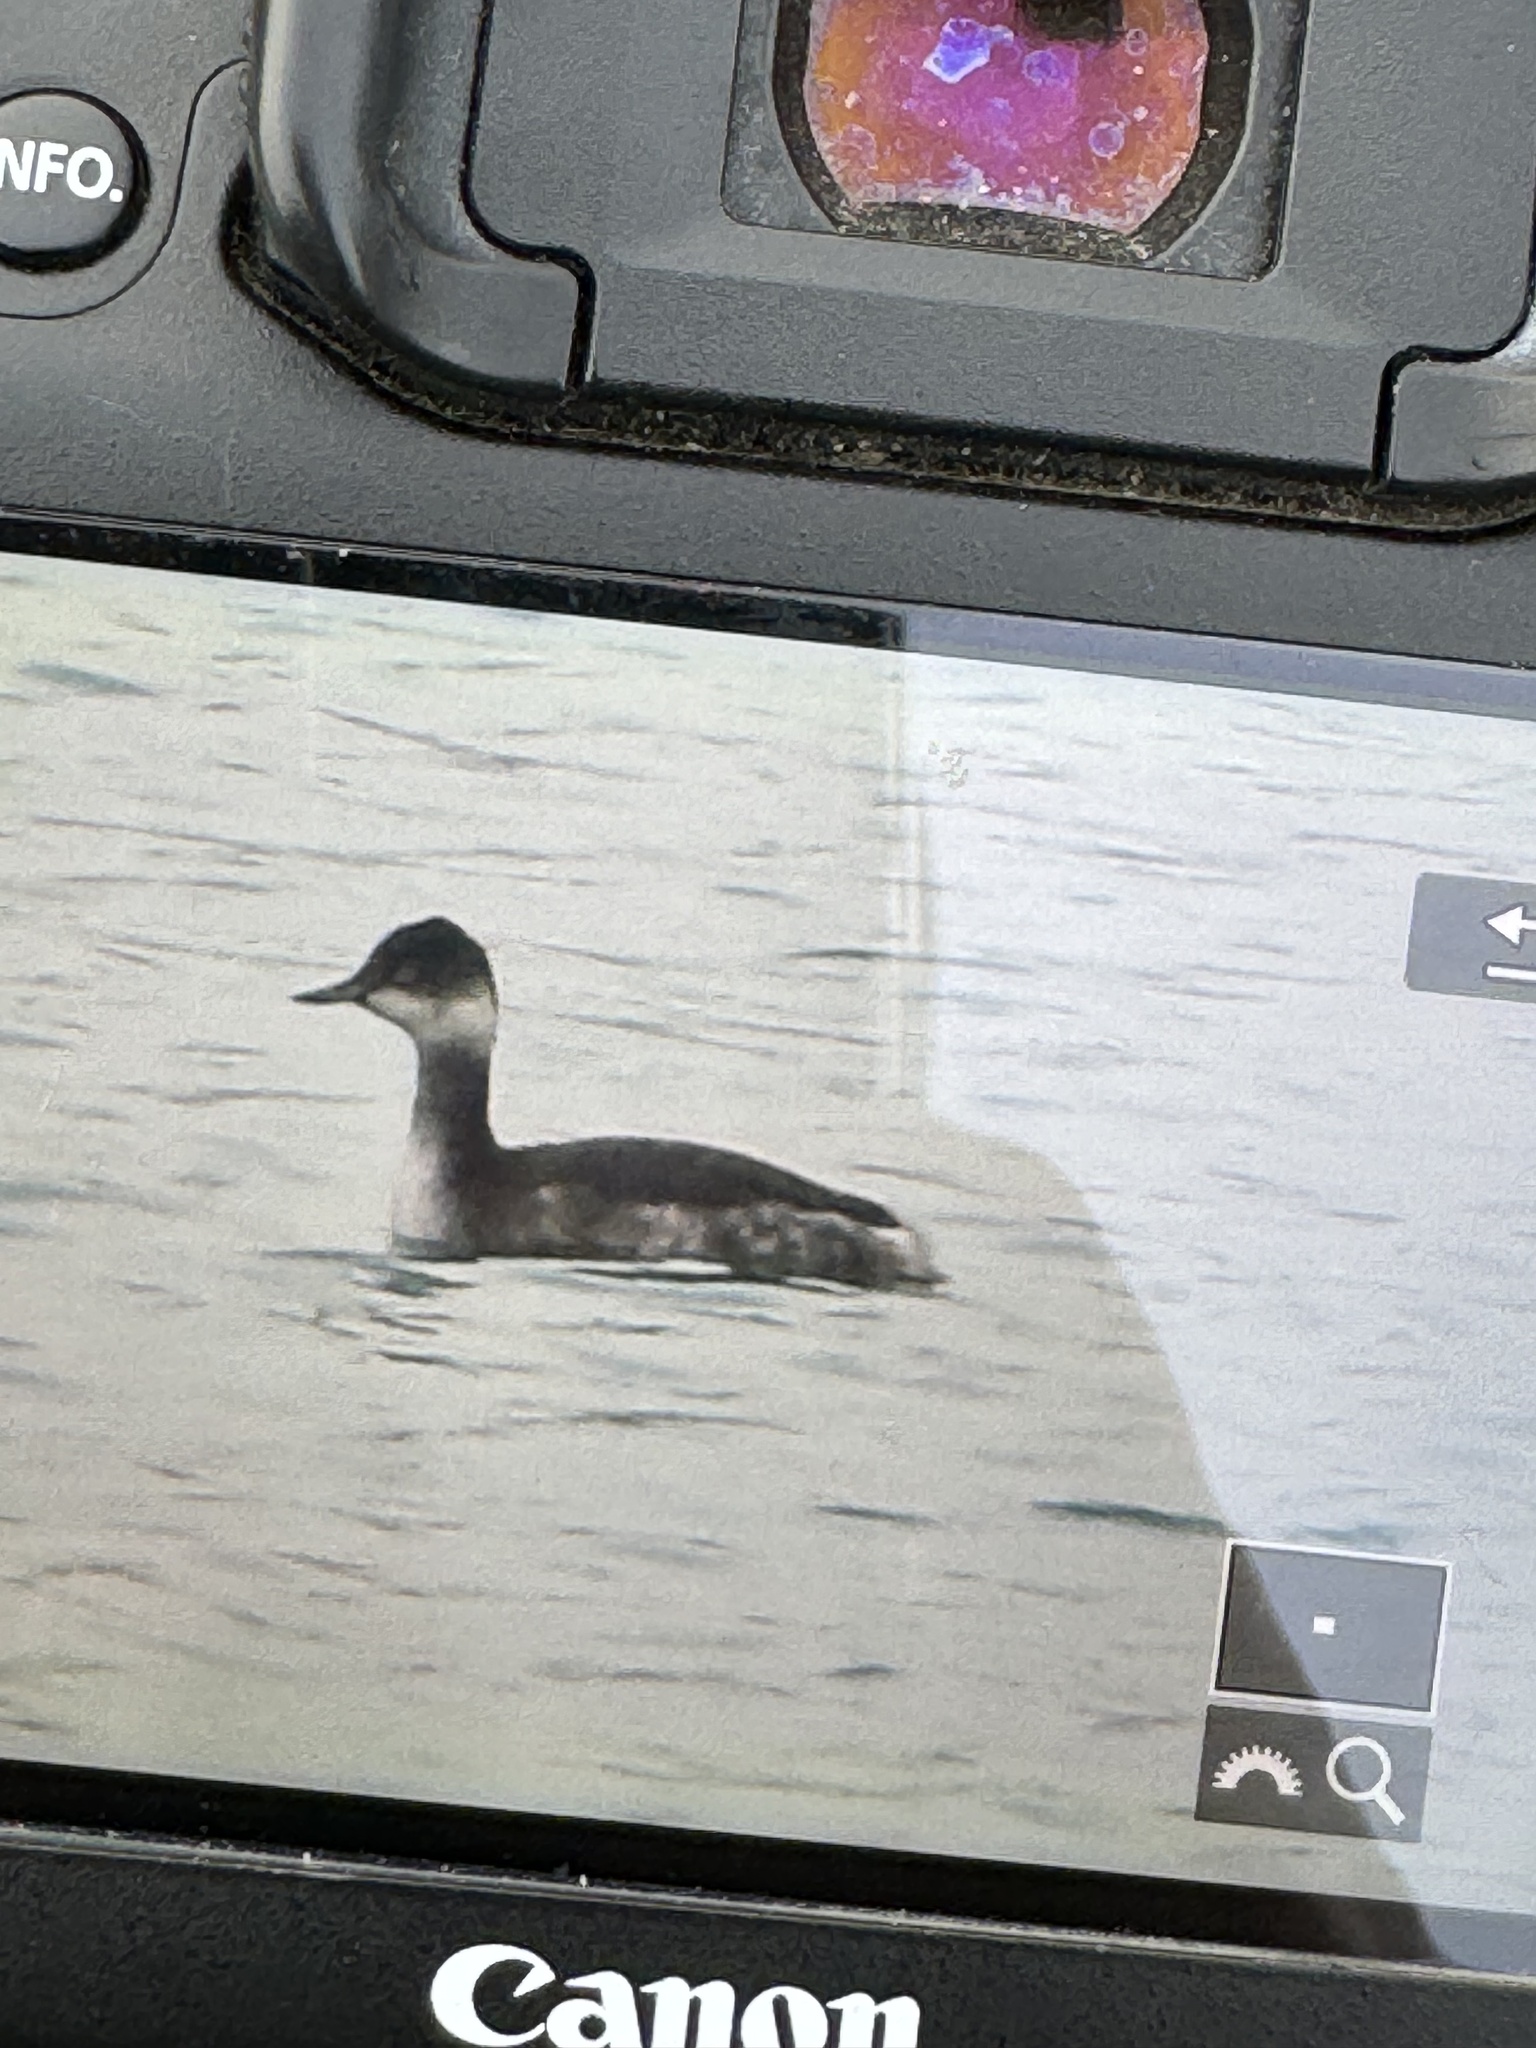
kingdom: Animalia
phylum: Chordata
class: Aves
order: Podicipediformes
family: Podicipedidae
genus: Podiceps
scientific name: Podiceps nigricollis
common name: Black-necked grebe
